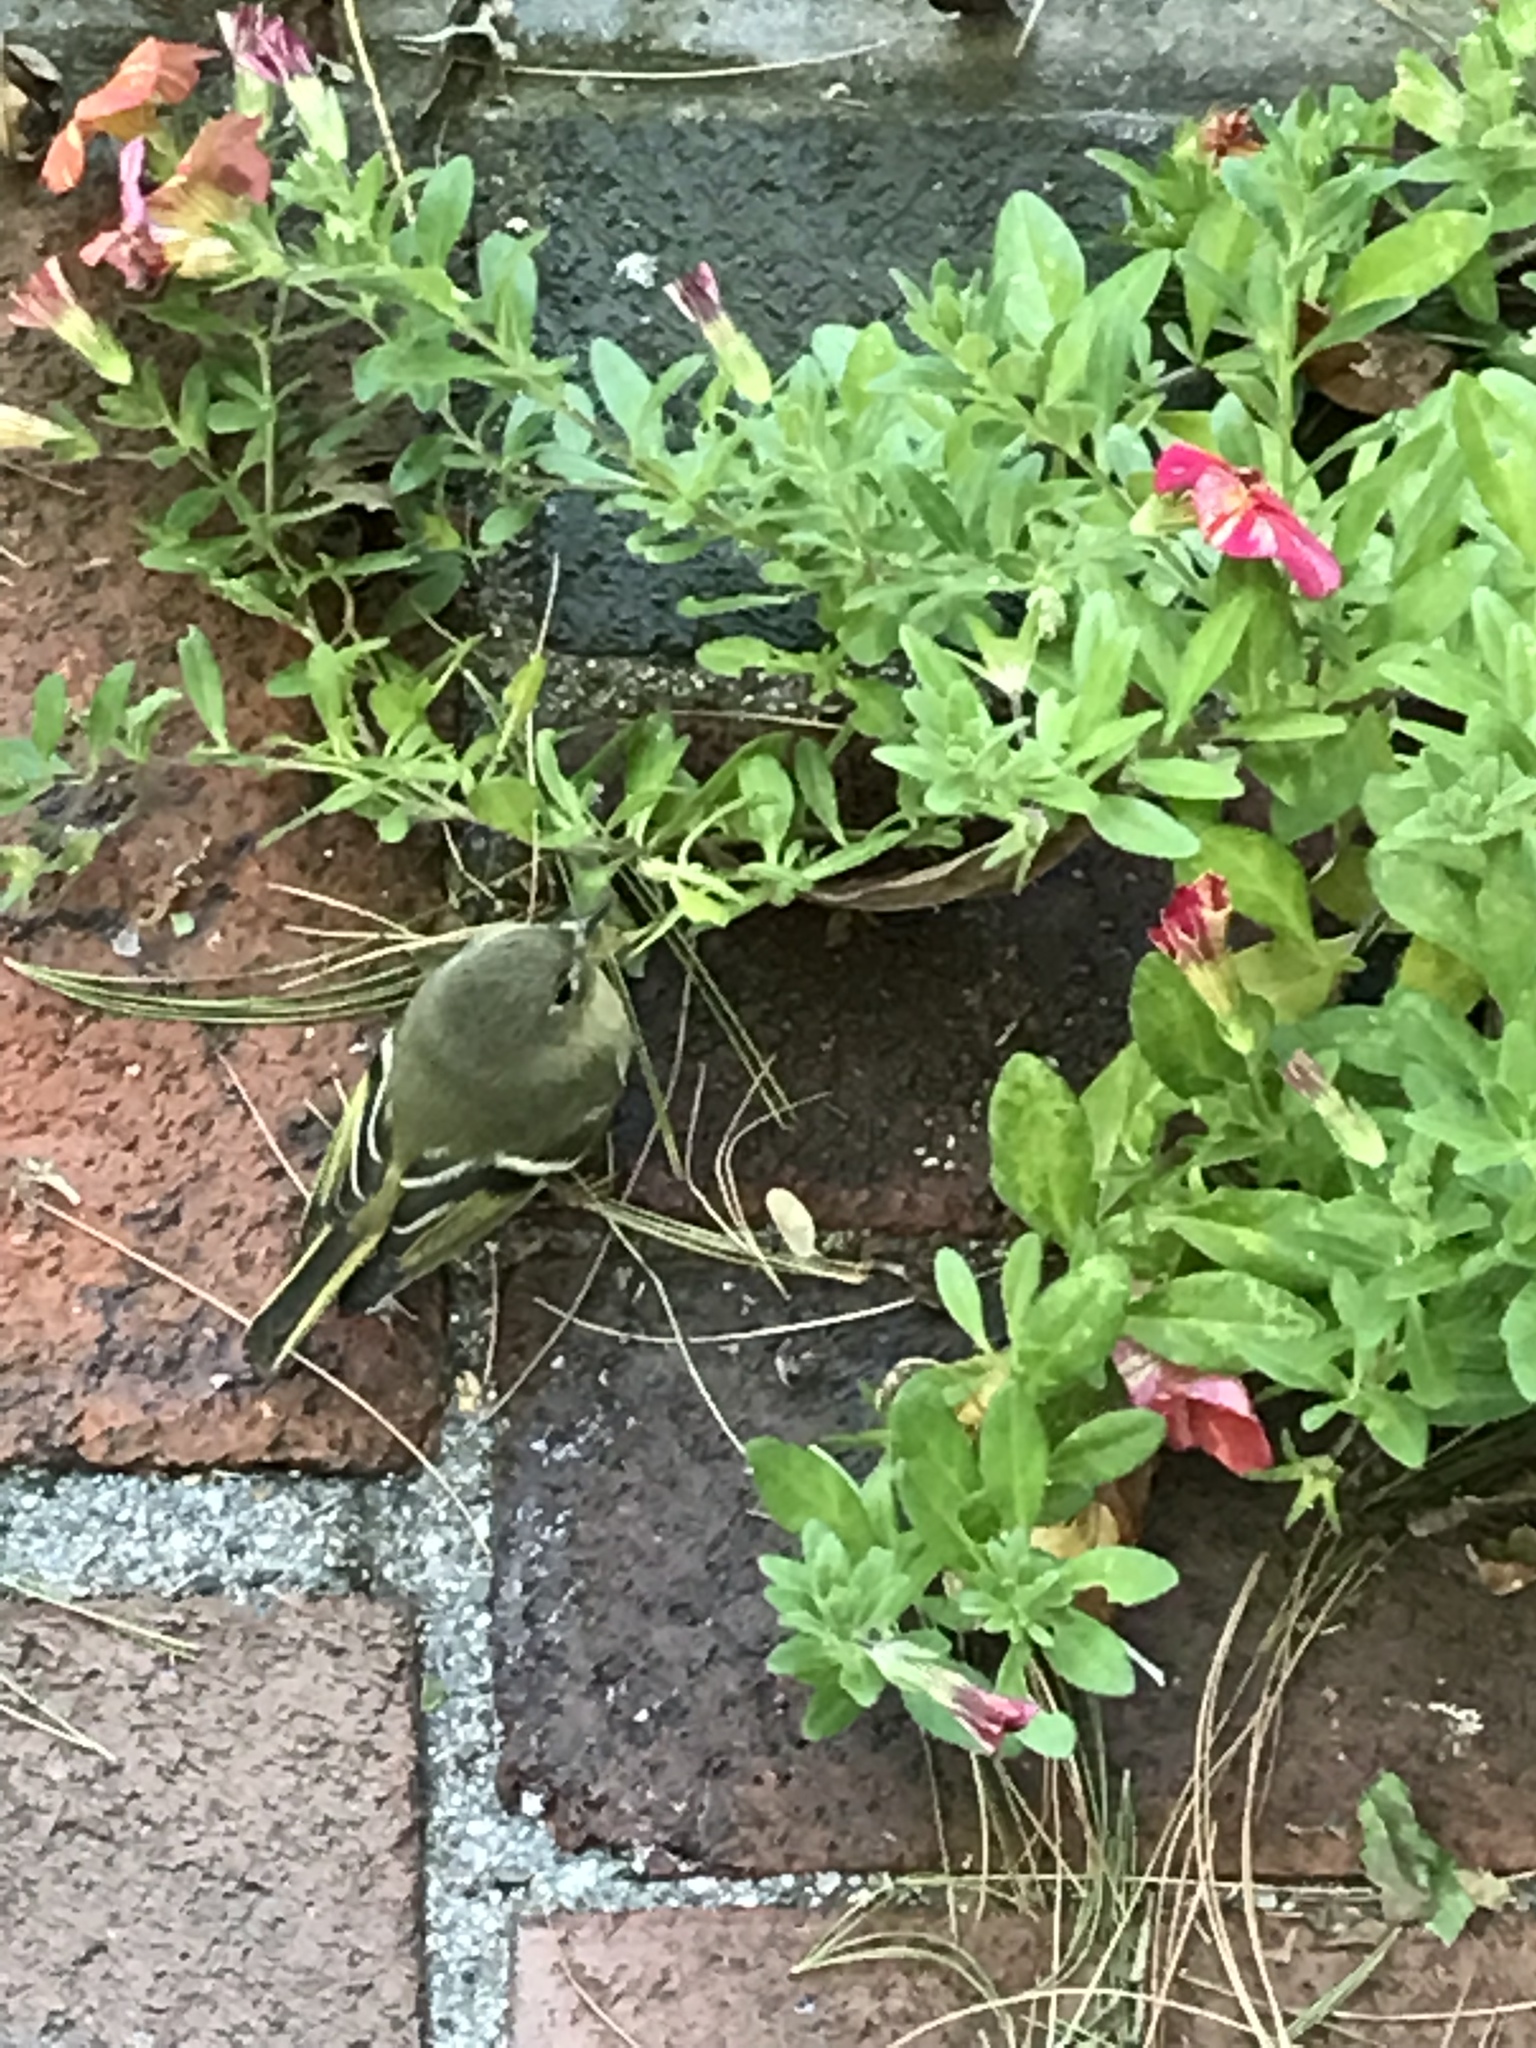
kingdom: Animalia
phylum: Chordata
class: Aves
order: Passeriformes
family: Regulidae
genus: Regulus
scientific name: Regulus calendula
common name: Ruby-crowned kinglet
